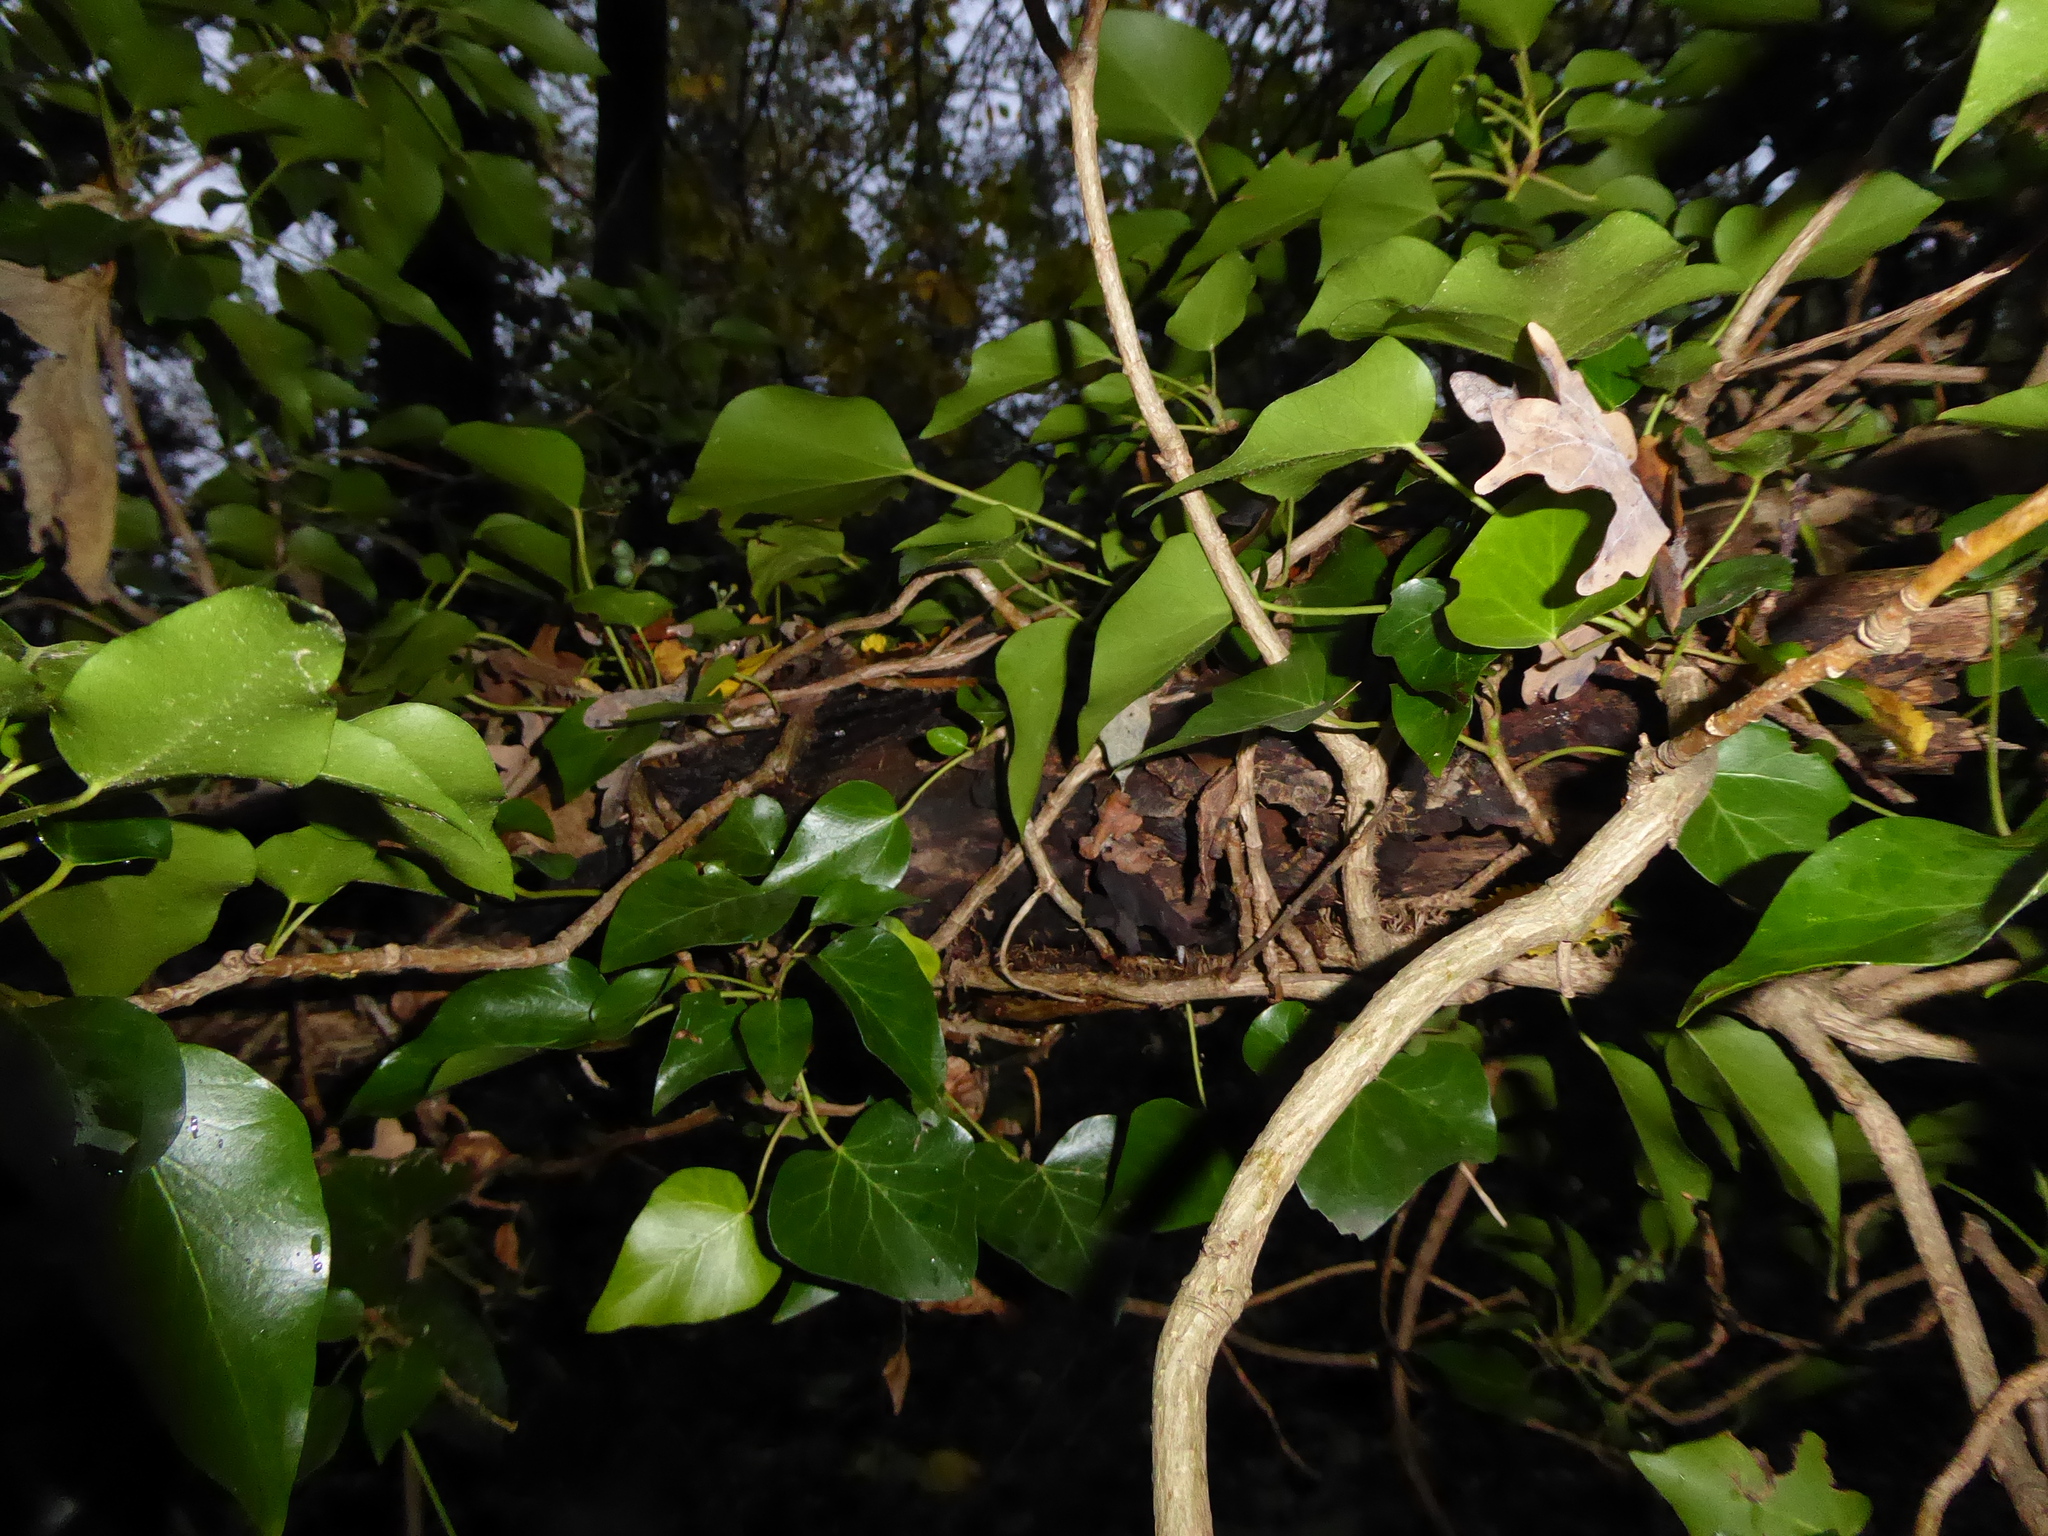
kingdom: Plantae
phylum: Tracheophyta
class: Magnoliopsida
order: Apiales
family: Araliaceae
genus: Hedera
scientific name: Hedera helix
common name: Ivy
